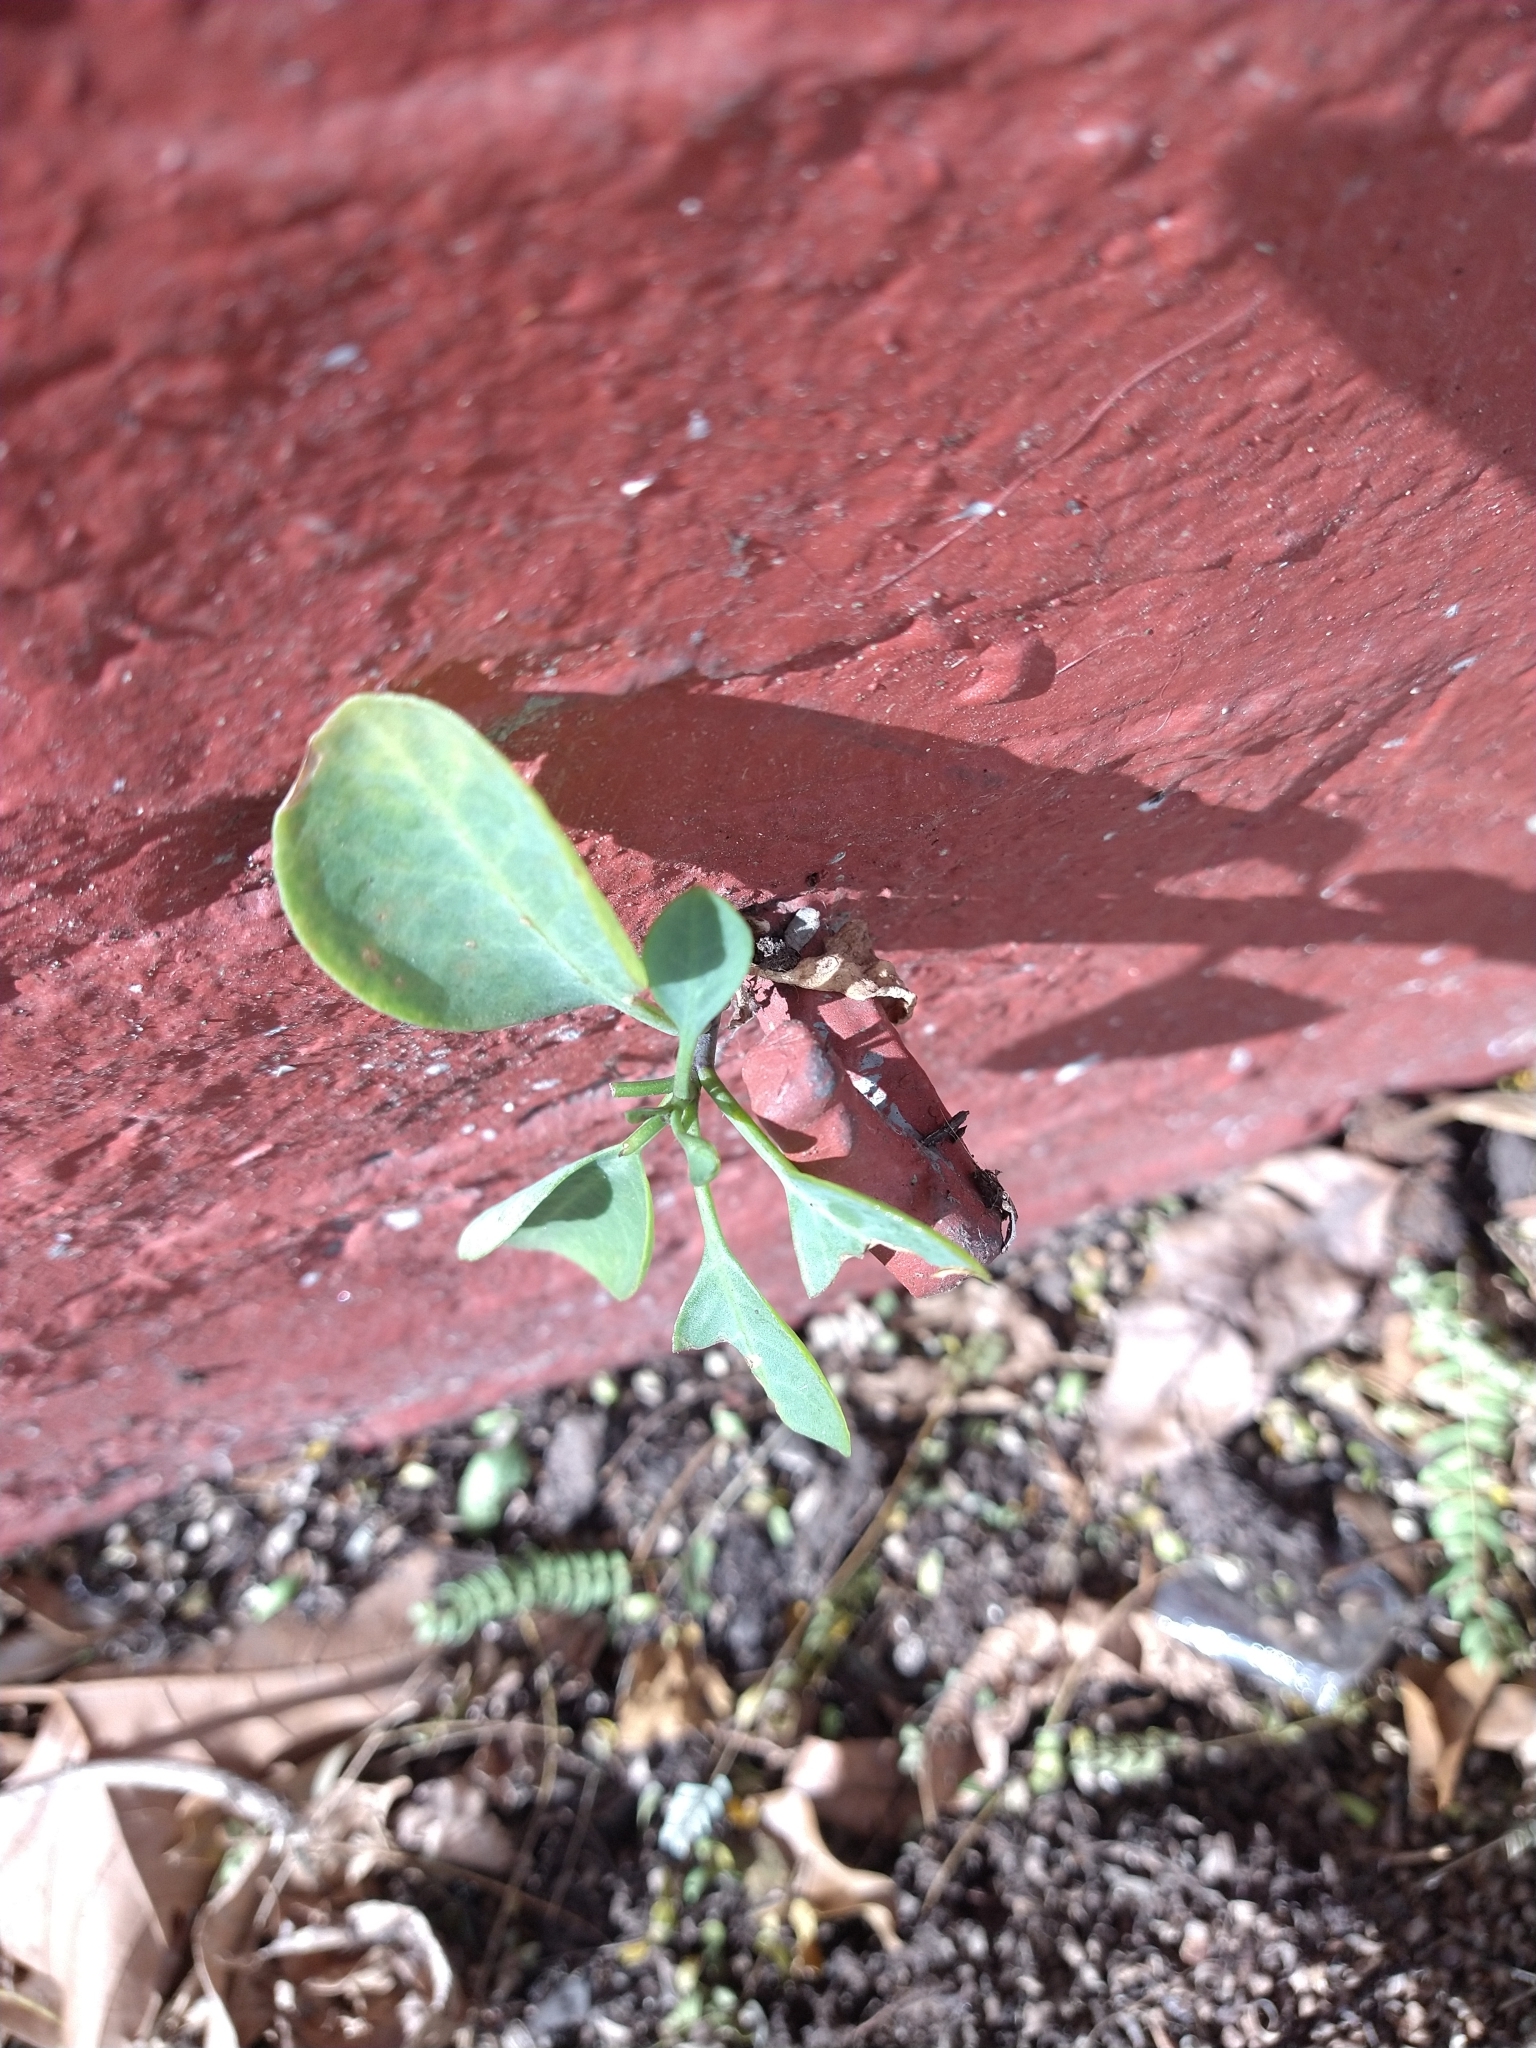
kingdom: Plantae
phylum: Tracheophyta
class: Magnoliopsida
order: Solanales
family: Solanaceae
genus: Nicotiana
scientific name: Nicotiana glauca
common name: Tree tobacco
